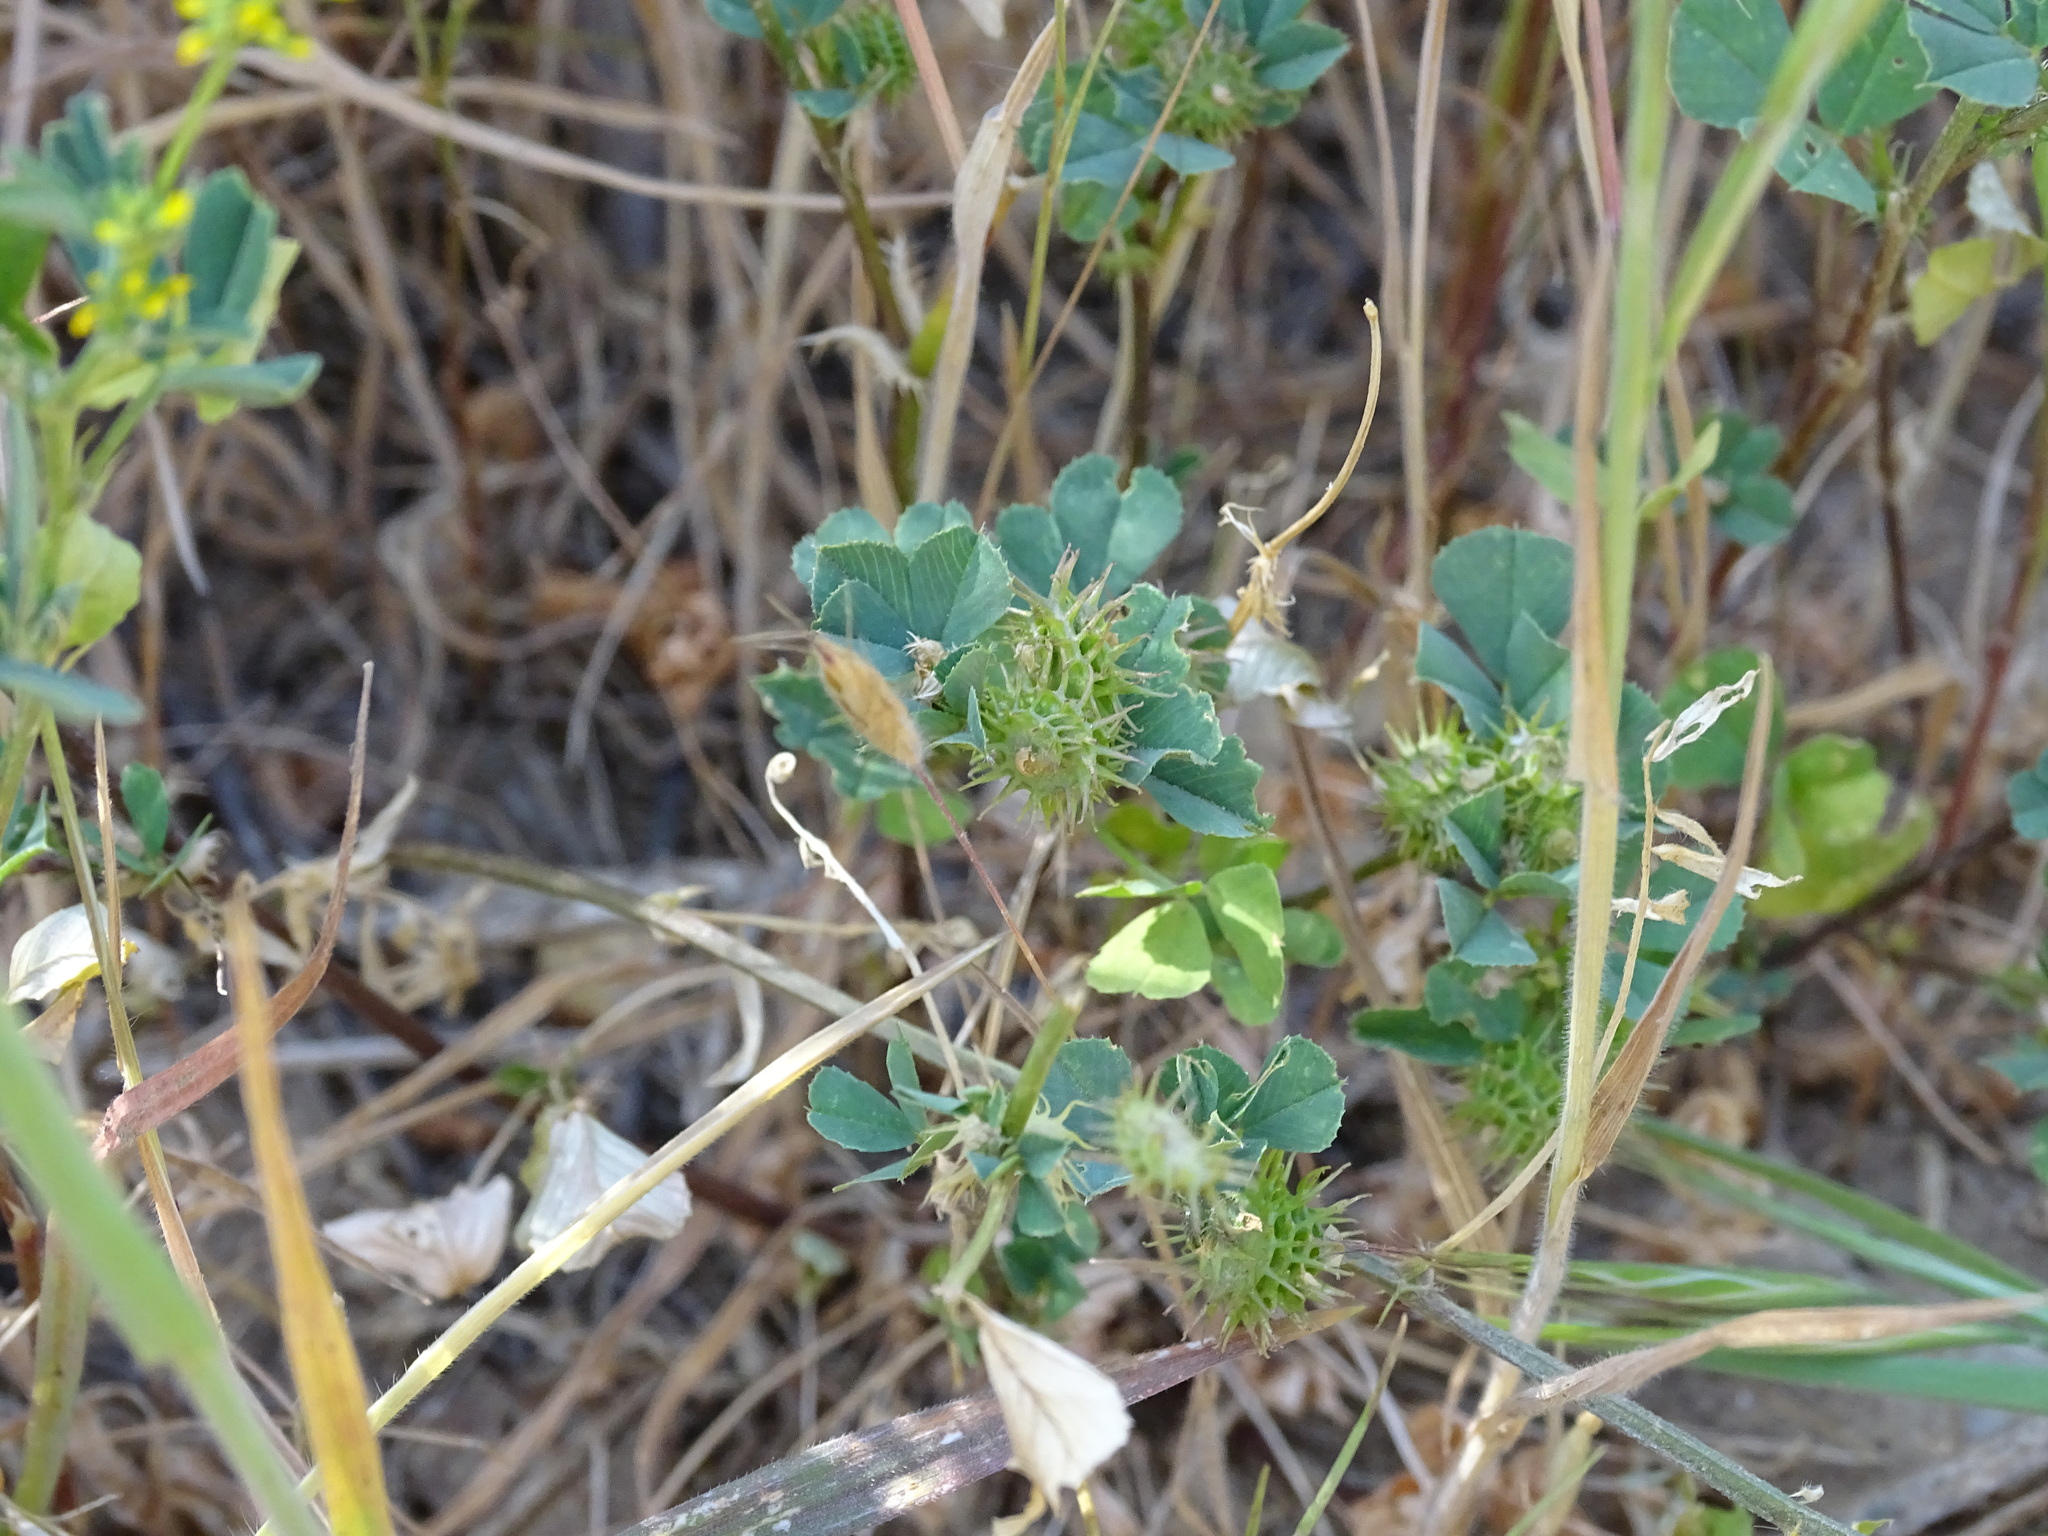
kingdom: Plantae
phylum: Tracheophyta
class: Magnoliopsida
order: Fabales
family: Fabaceae
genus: Medicago
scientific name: Medicago polymorpha
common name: Burclover
